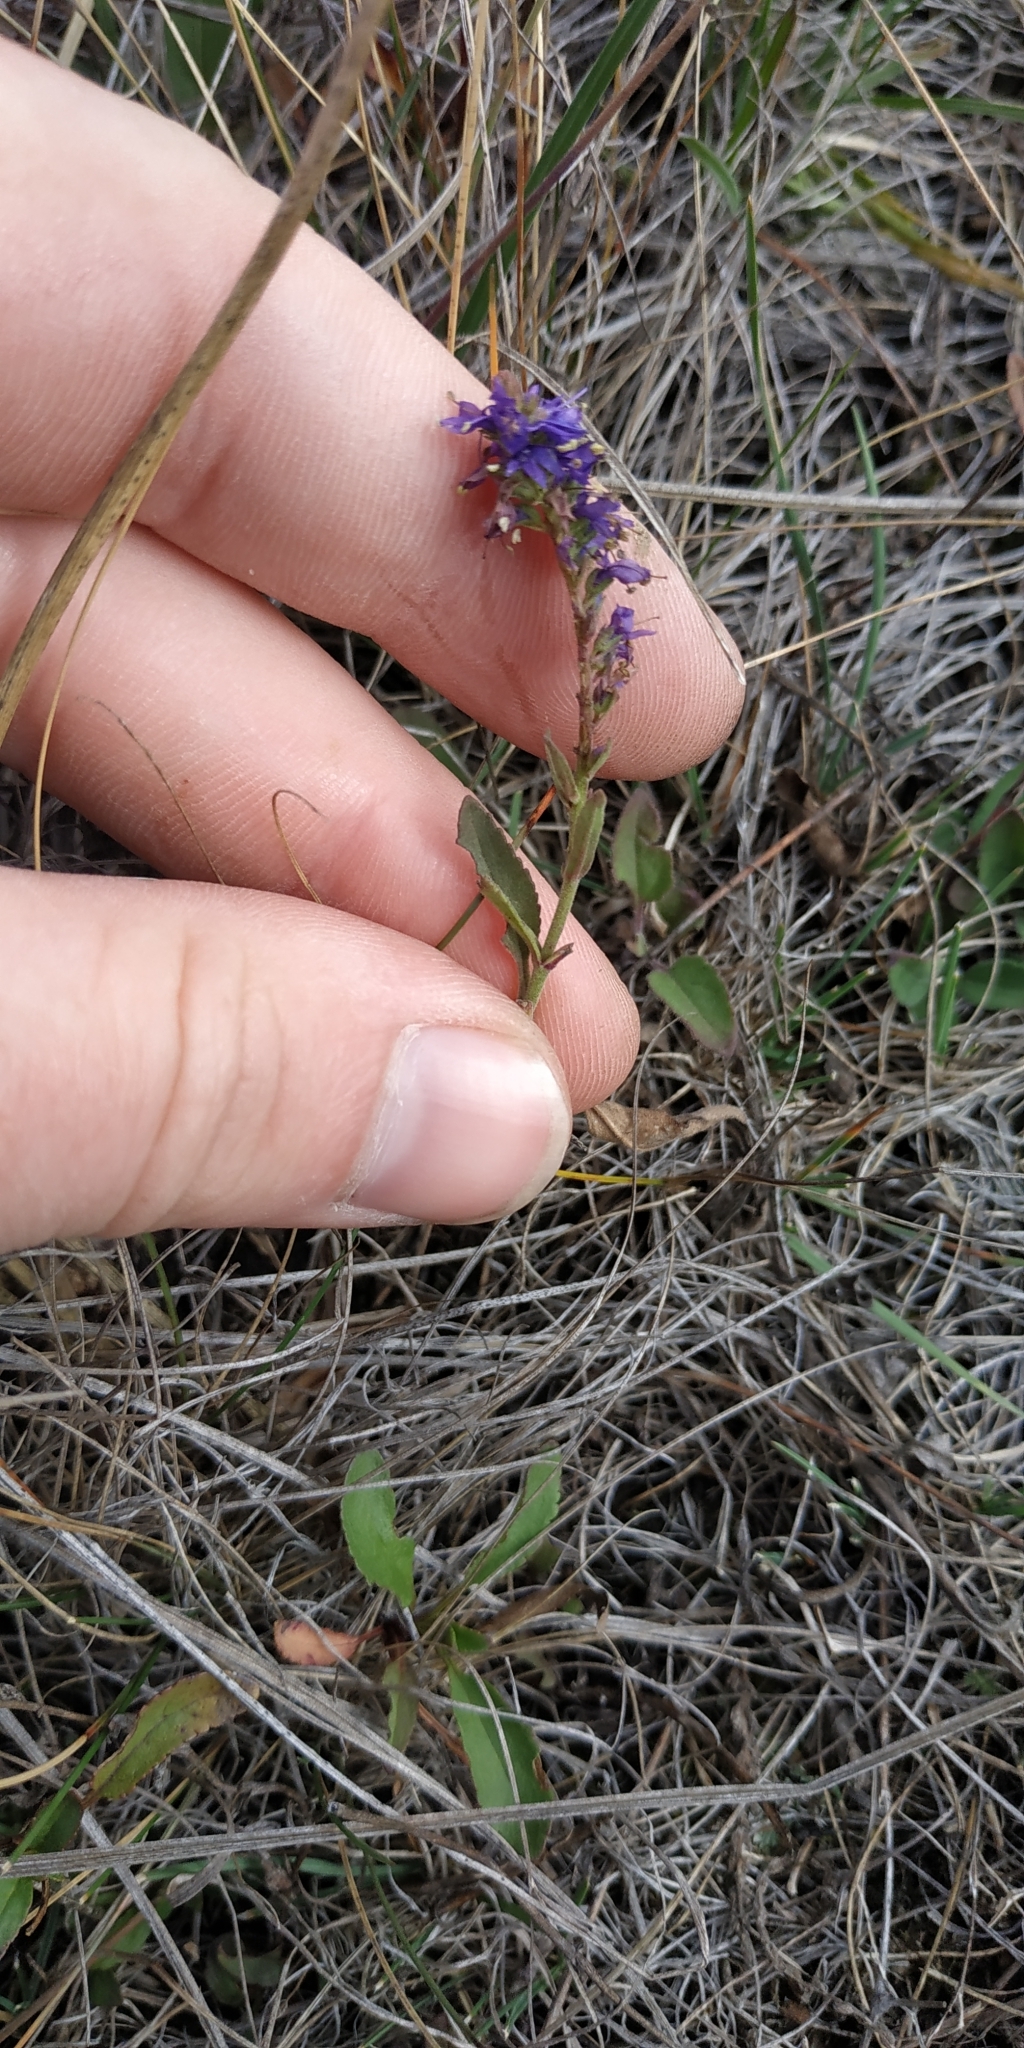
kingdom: Plantae
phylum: Tracheophyta
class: Magnoliopsida
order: Lamiales
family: Plantaginaceae
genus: Veronica
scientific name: Veronica spicata
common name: Spiked speedwell
